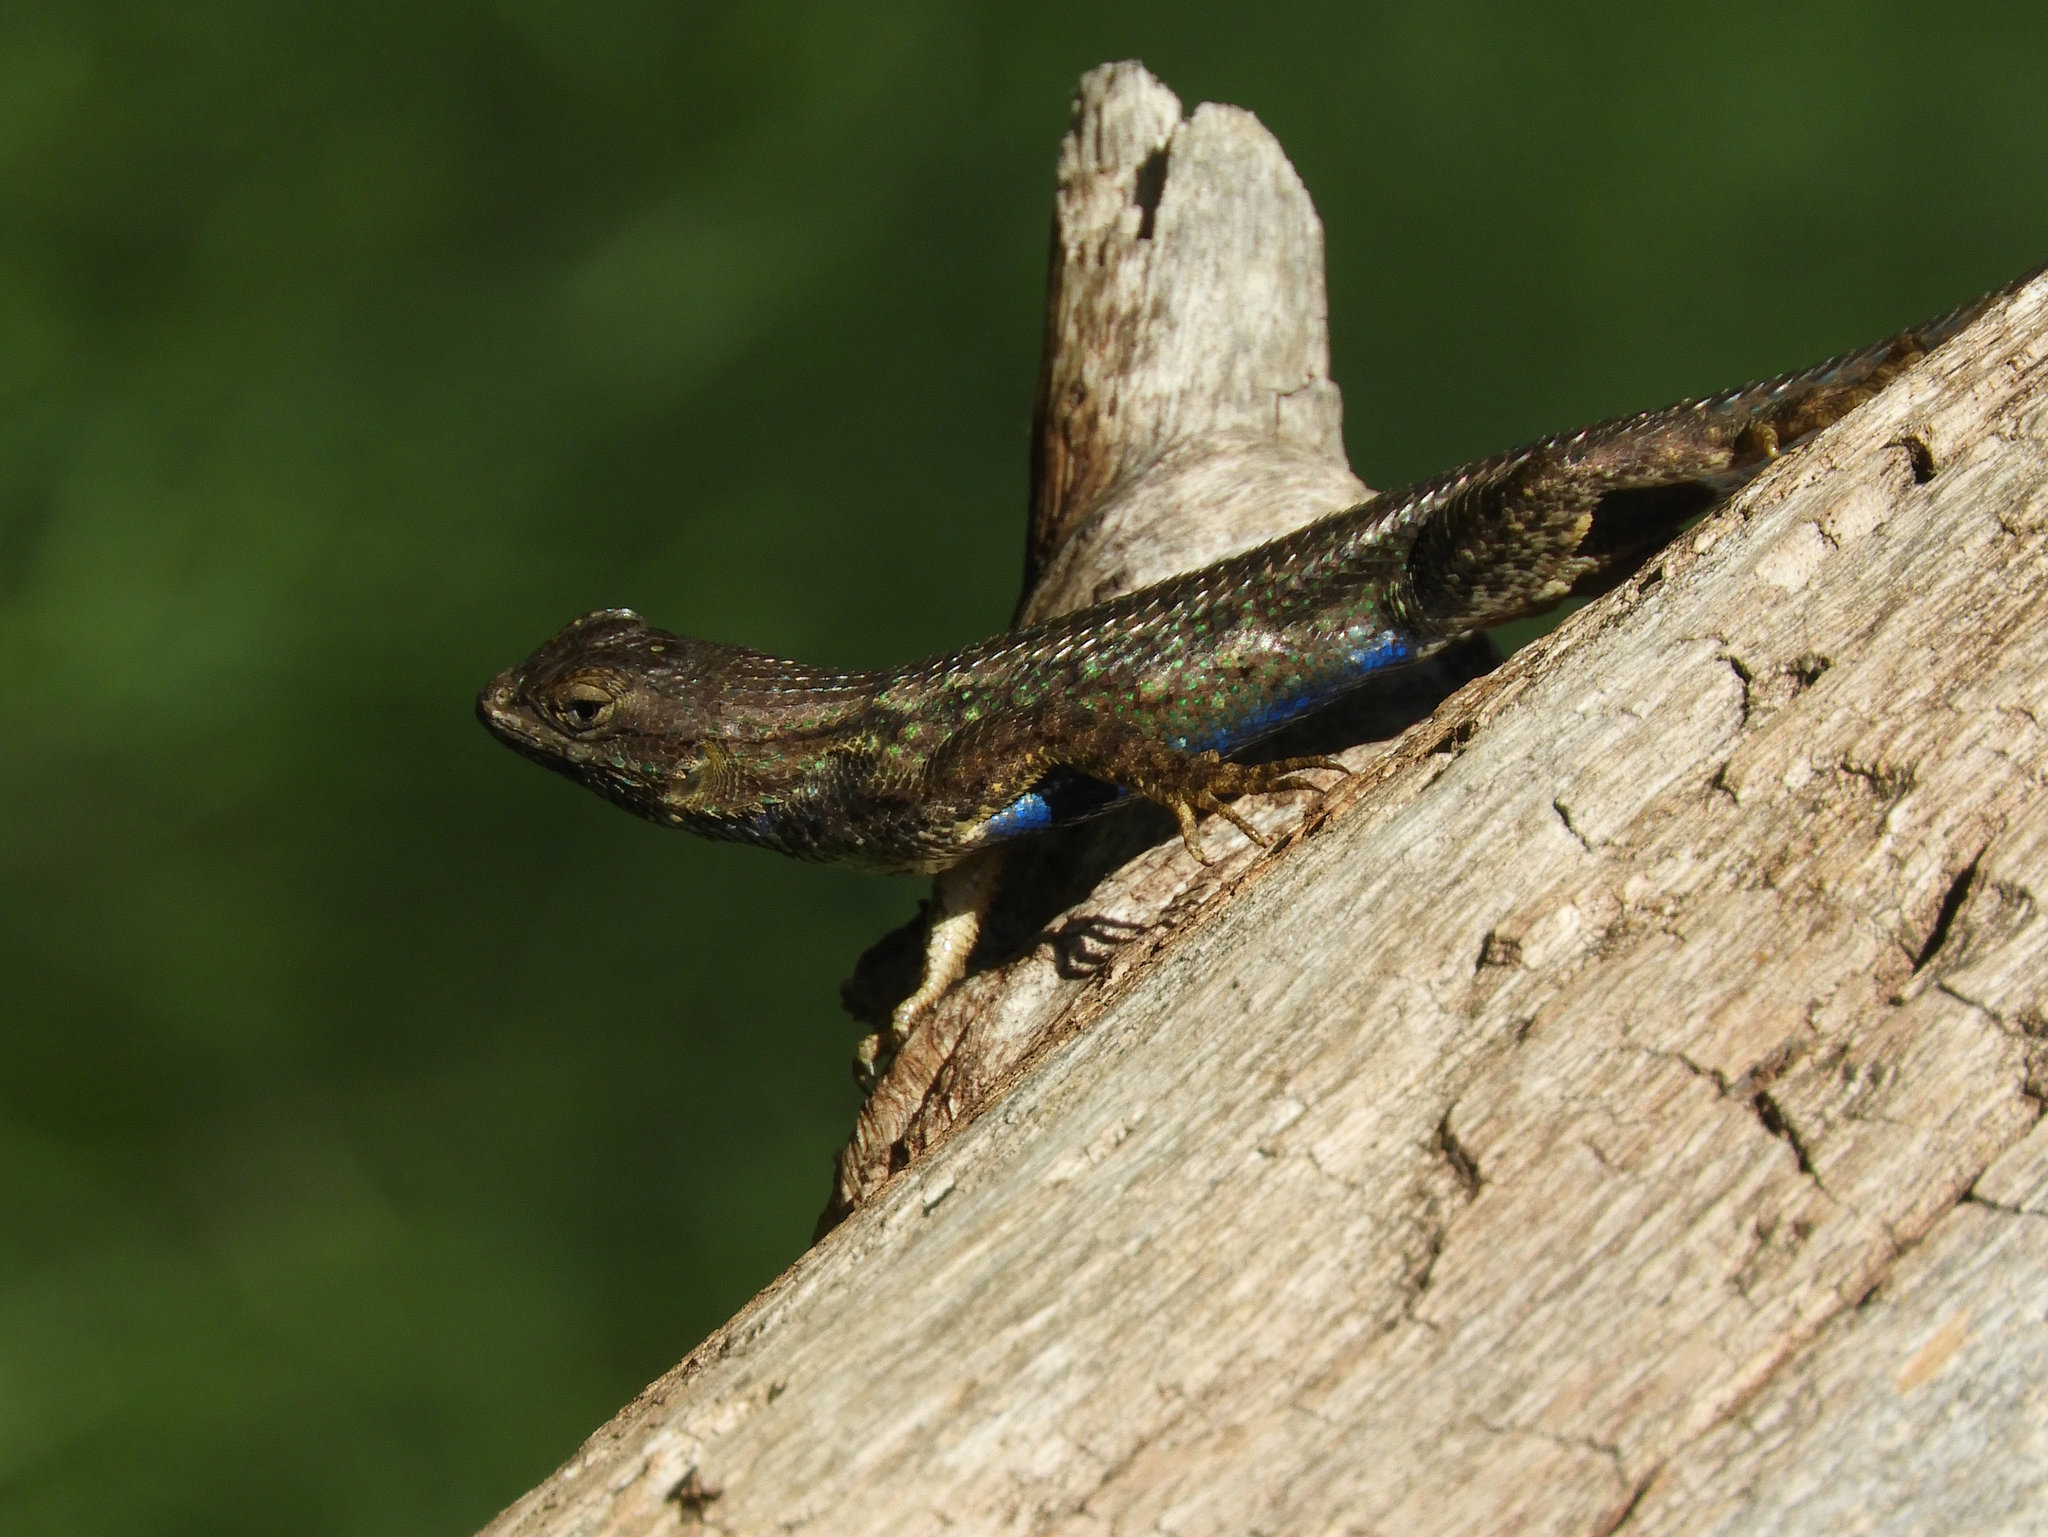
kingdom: Animalia
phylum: Chordata
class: Squamata
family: Phrynosomatidae
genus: Sceloporus
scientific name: Sceloporus occidentalis
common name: Western fence lizard
